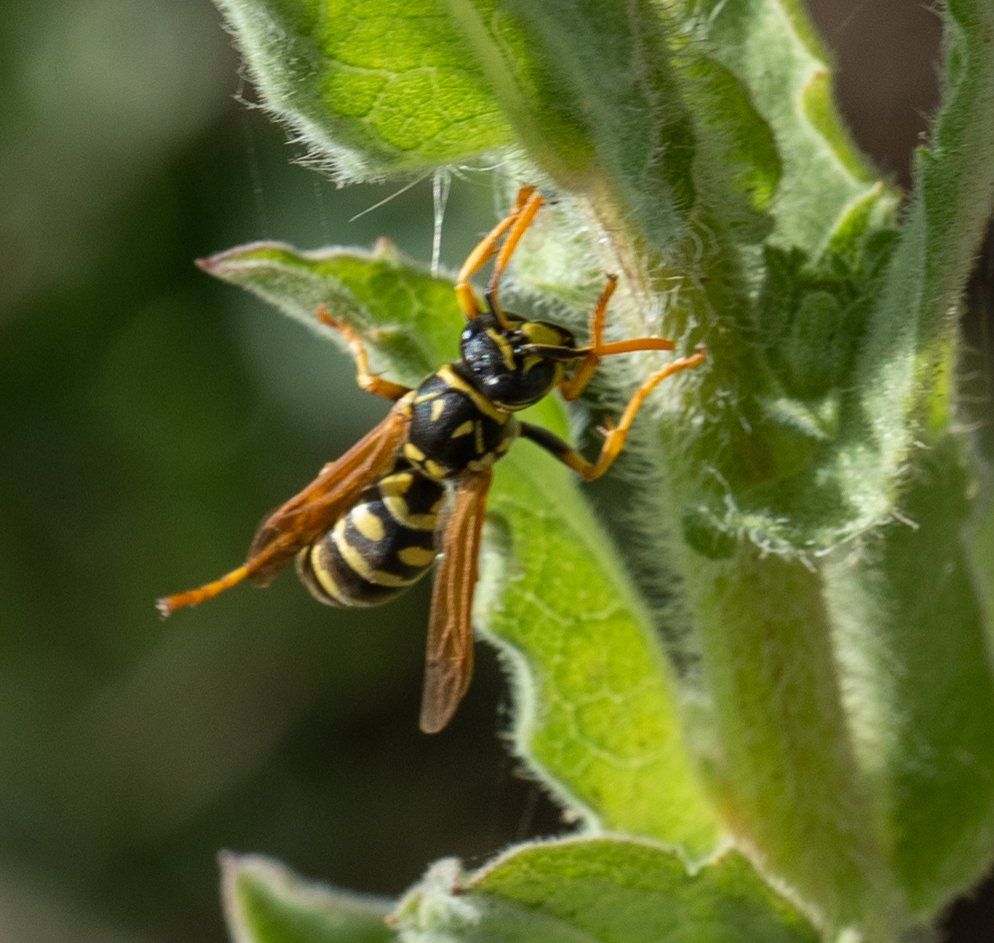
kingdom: Animalia
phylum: Arthropoda
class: Insecta
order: Hymenoptera
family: Eumenidae
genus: Polistes
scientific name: Polistes dominula
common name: Paper wasp
